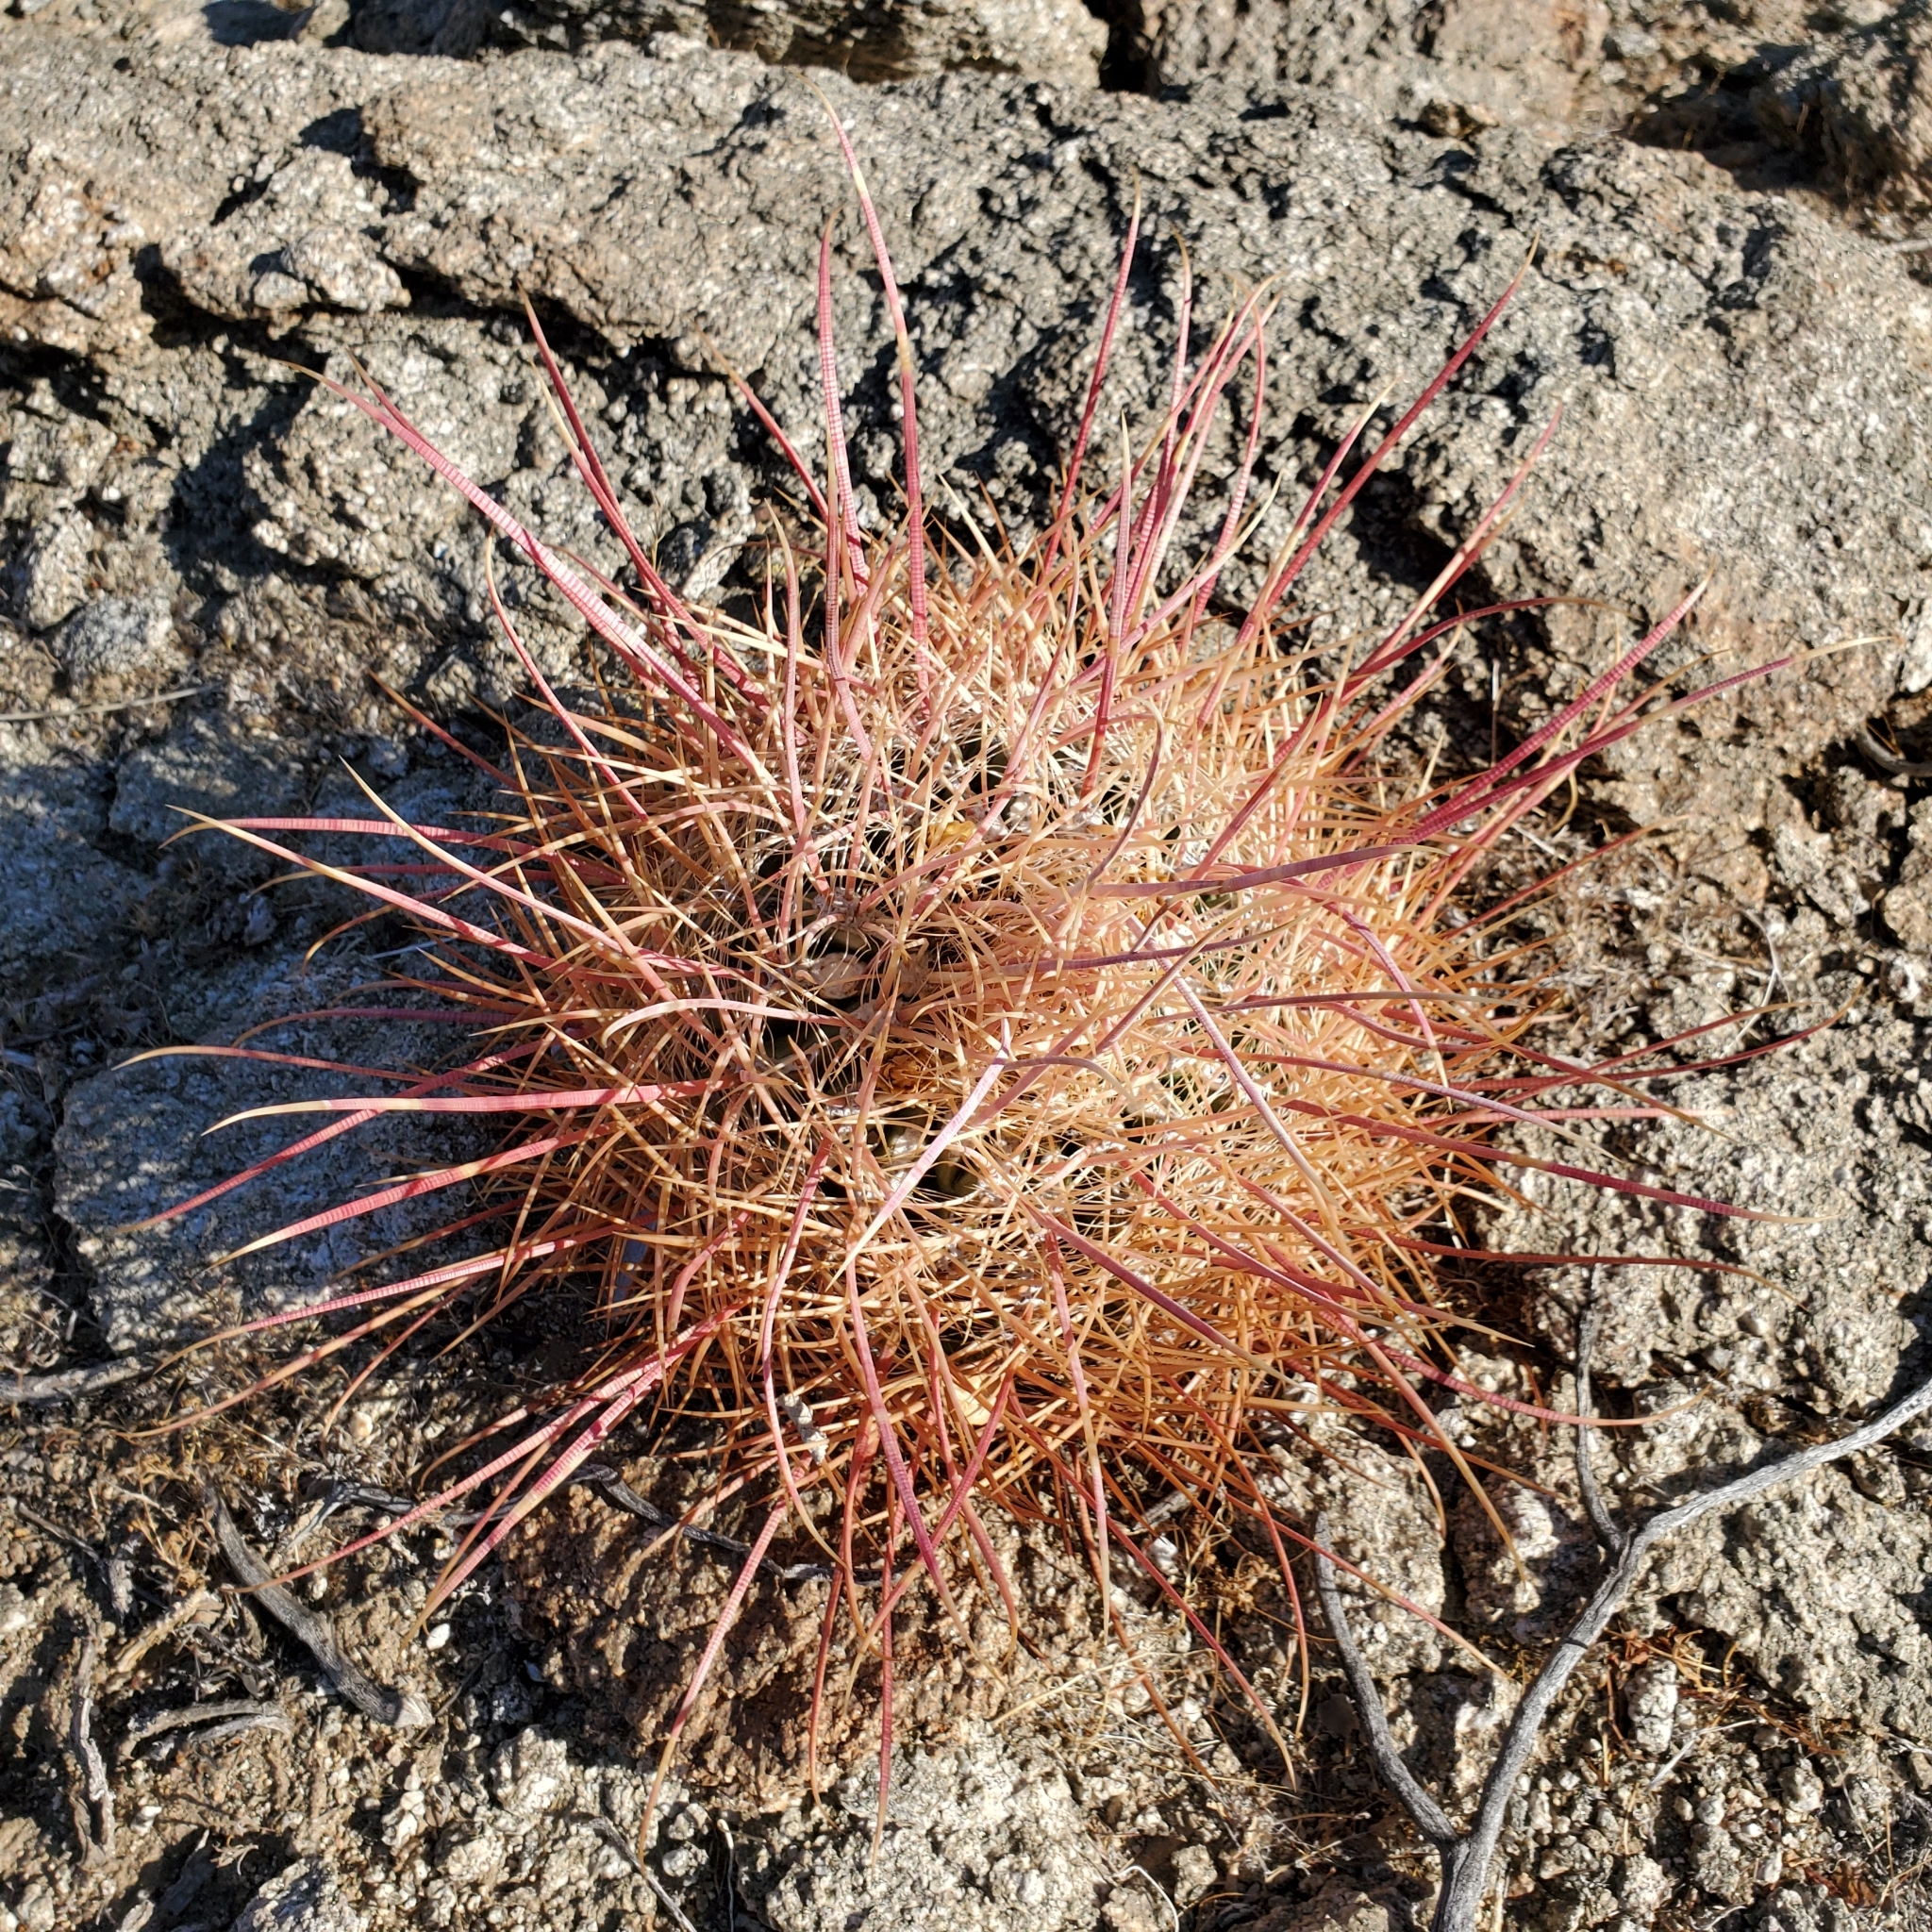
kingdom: Plantae
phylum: Tracheophyta
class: Magnoliopsida
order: Caryophyllales
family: Cactaceae
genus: Ferocactus
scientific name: Ferocactus cylindraceus
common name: California barrel cactus
